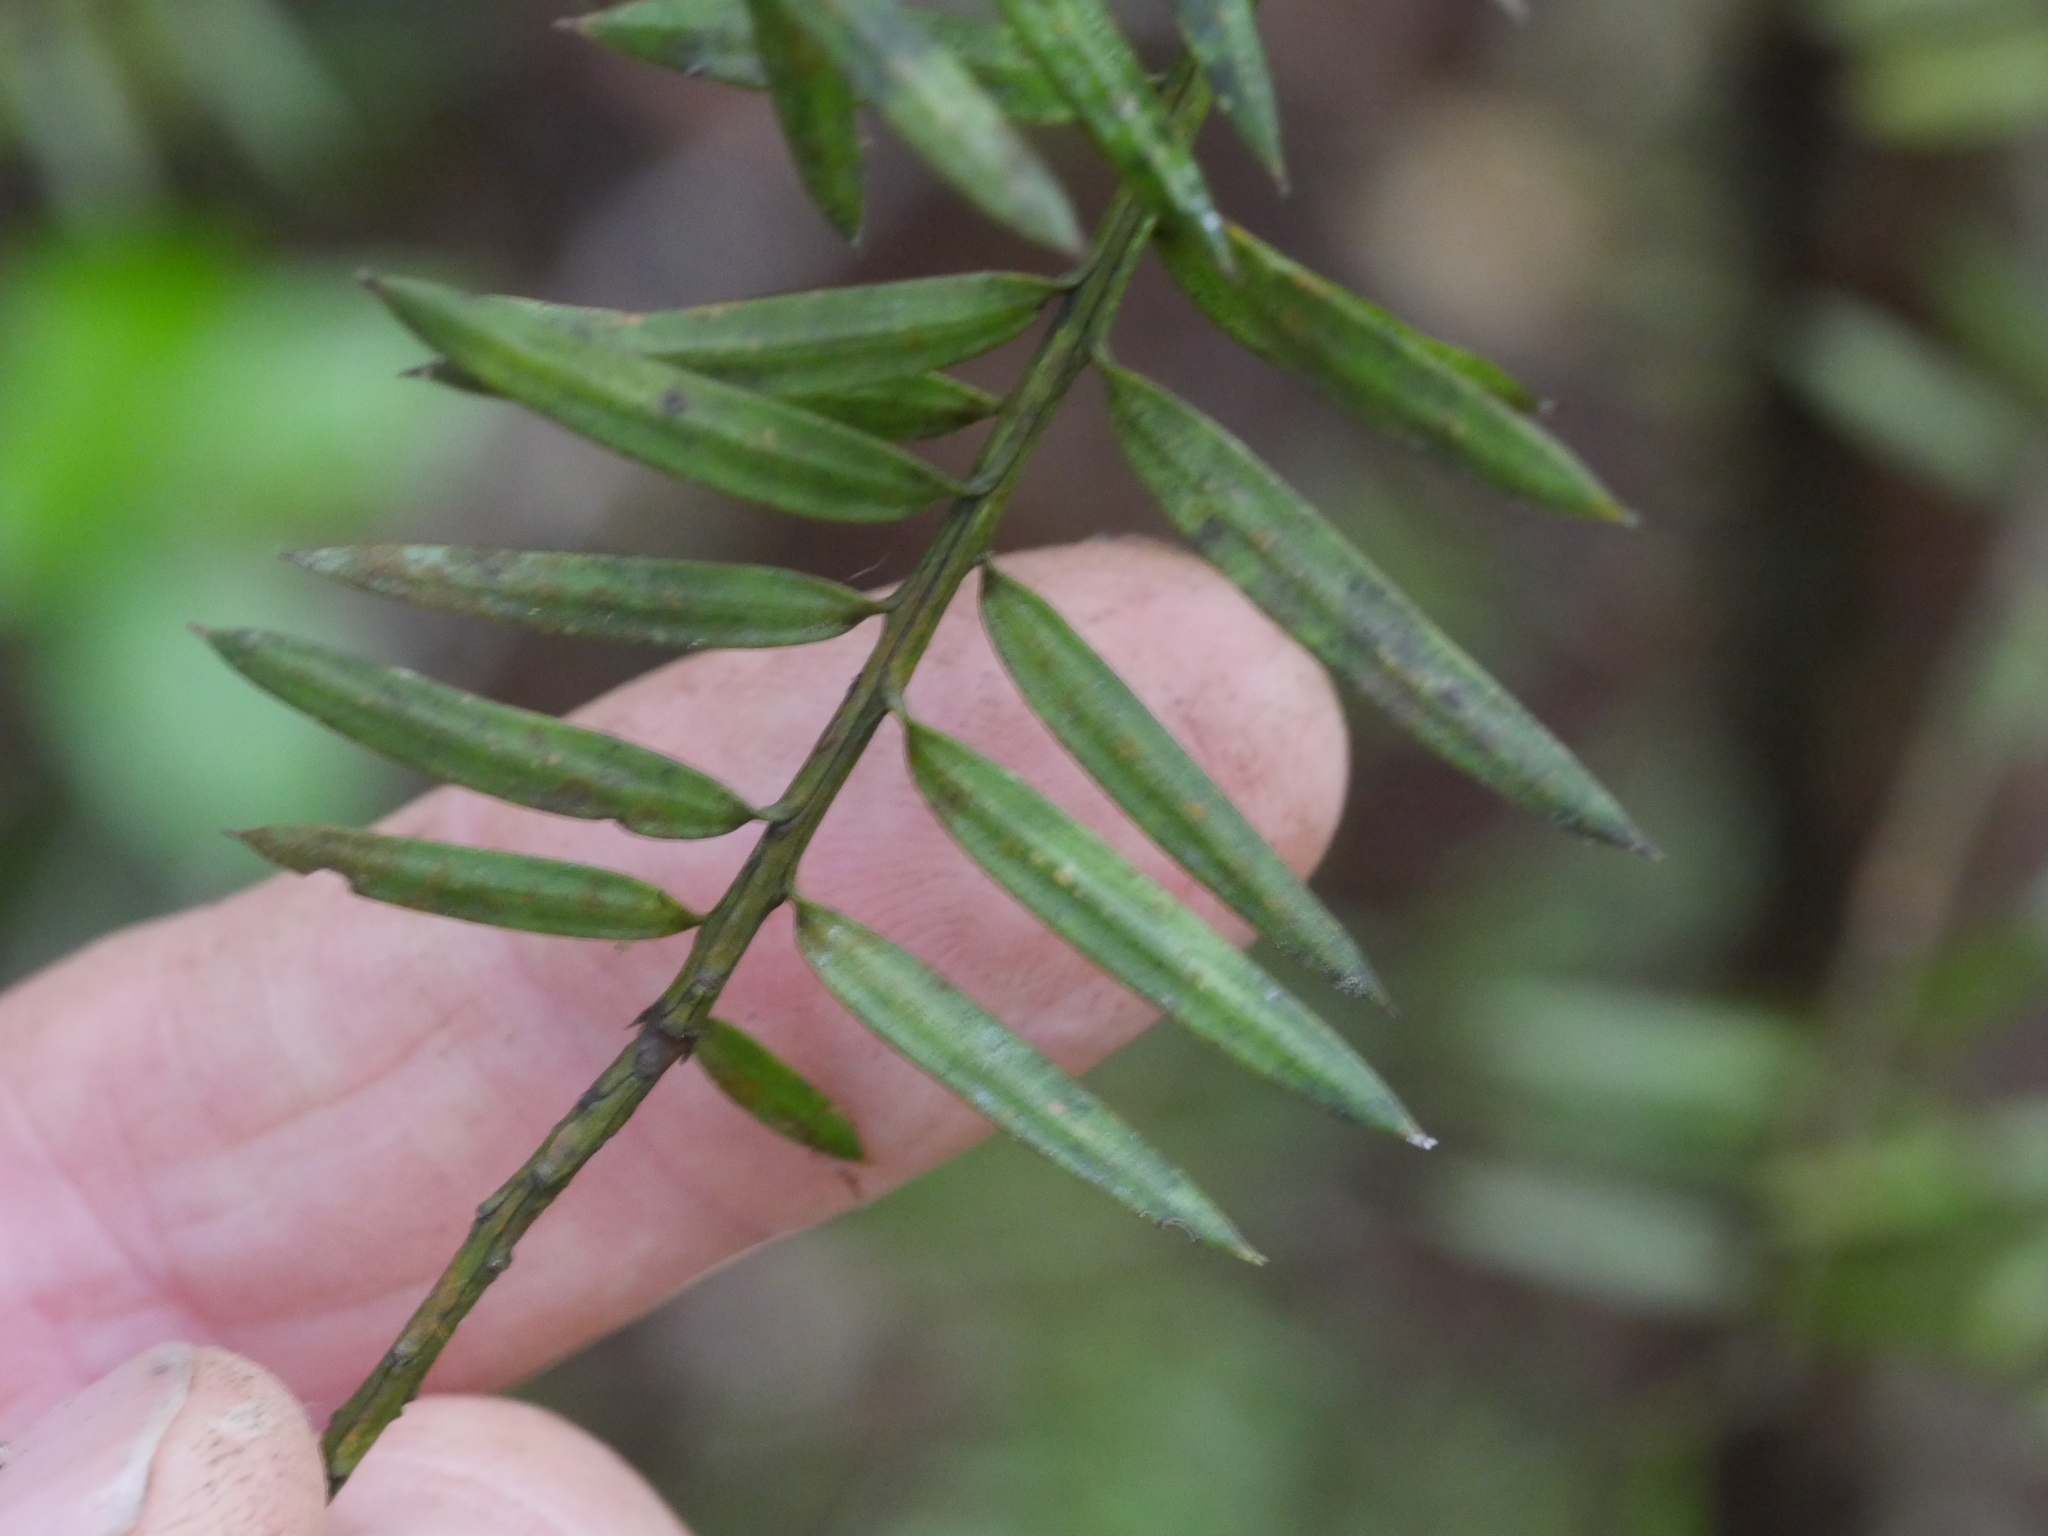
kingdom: Plantae
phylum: Tracheophyta
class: Pinopsida
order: Pinales
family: Podocarpaceae
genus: Podocarpus
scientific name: Podocarpus laetus
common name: Hall's totara
